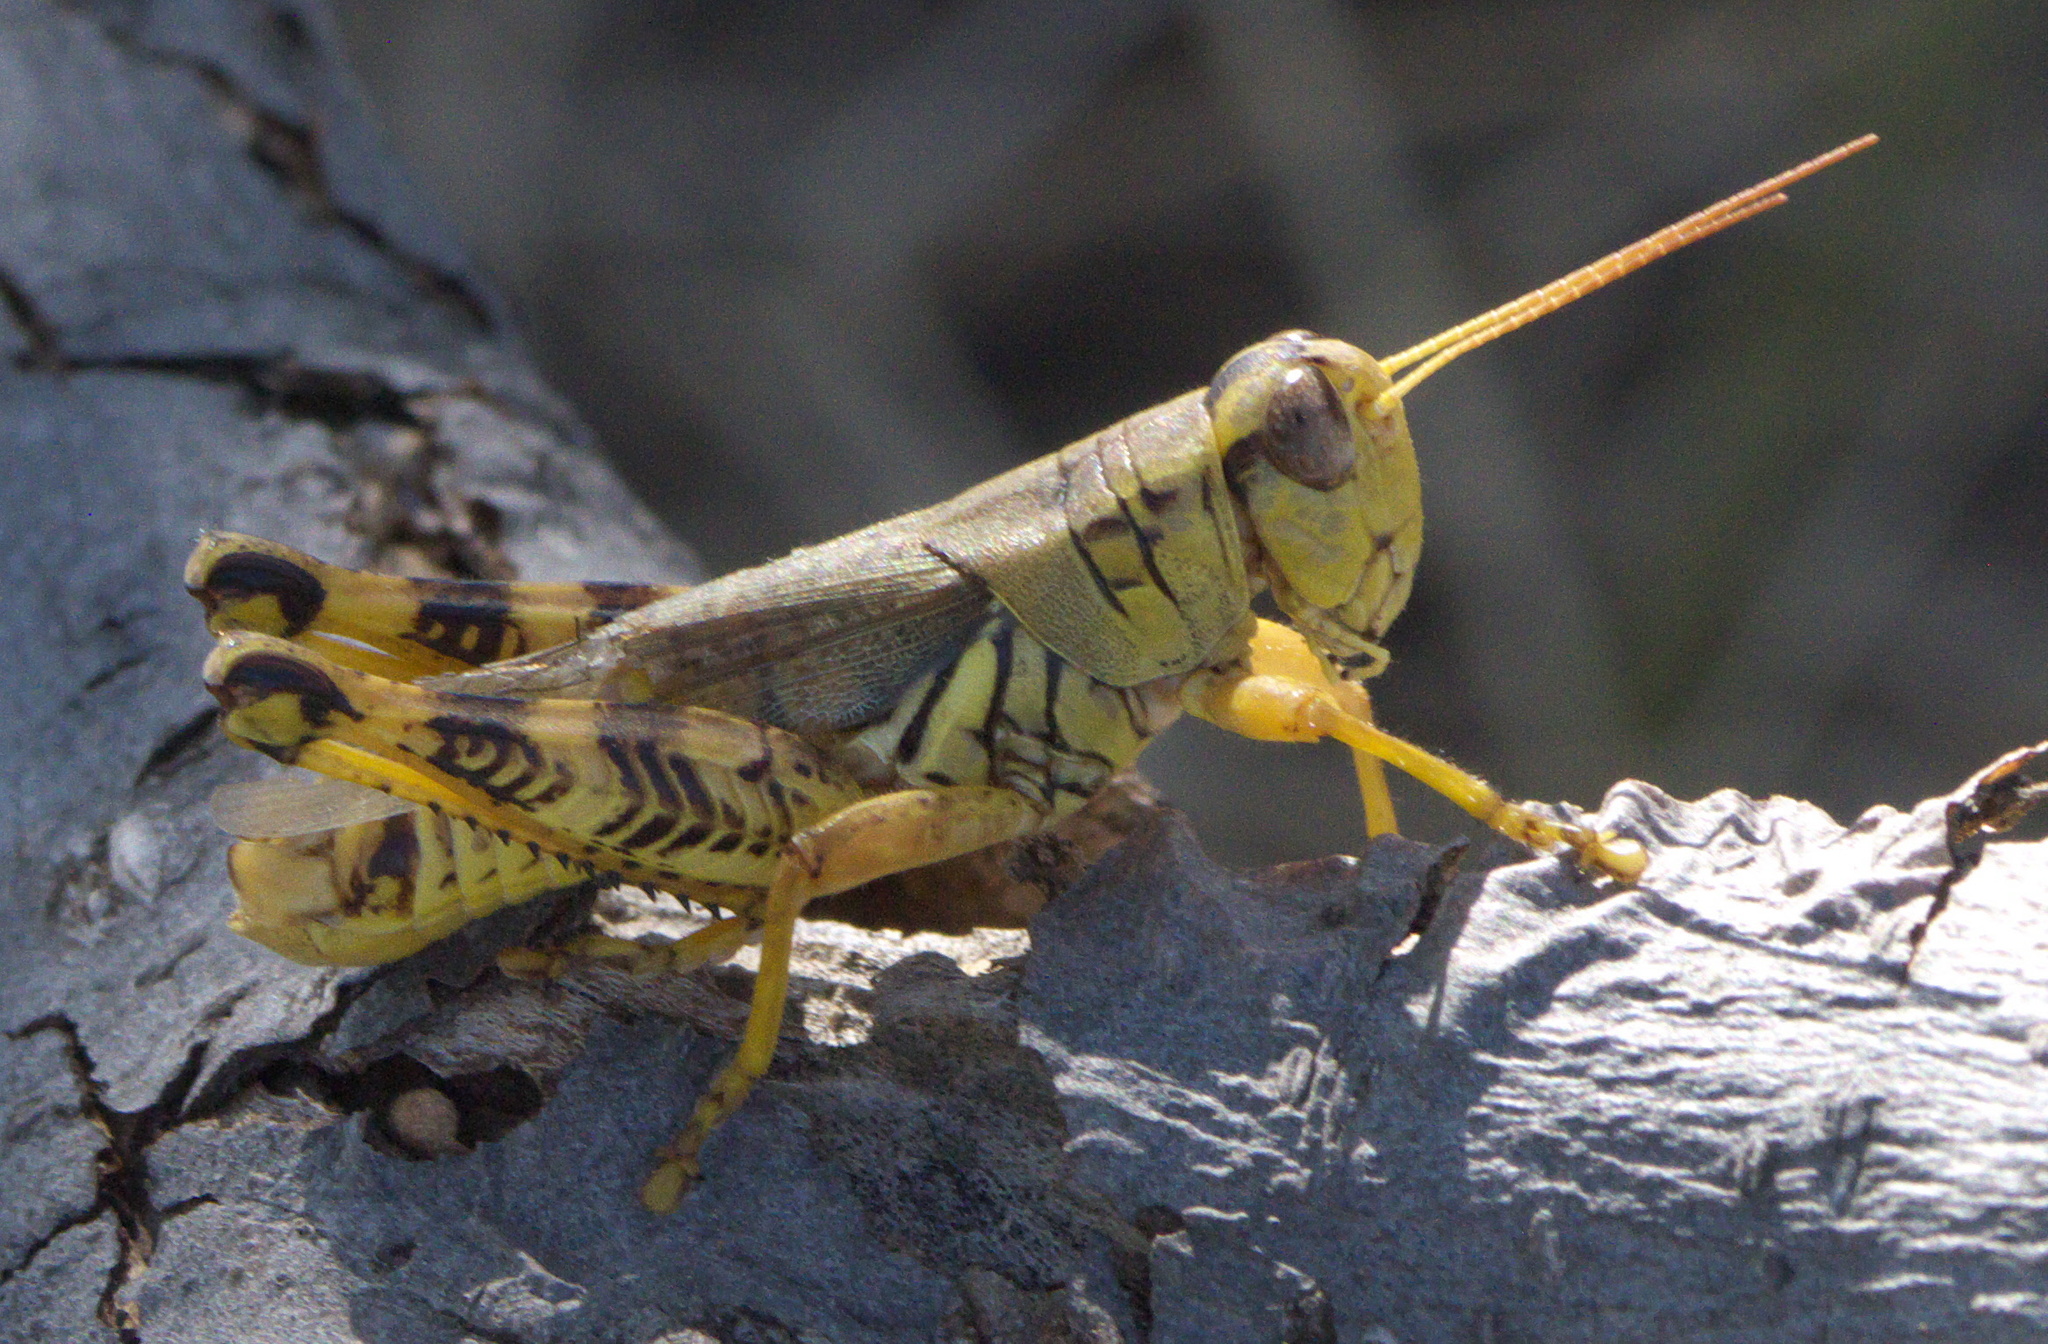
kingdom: Animalia
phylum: Arthropoda
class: Insecta
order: Orthoptera
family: Acrididae
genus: Melanoplus
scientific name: Melanoplus ponderosus
